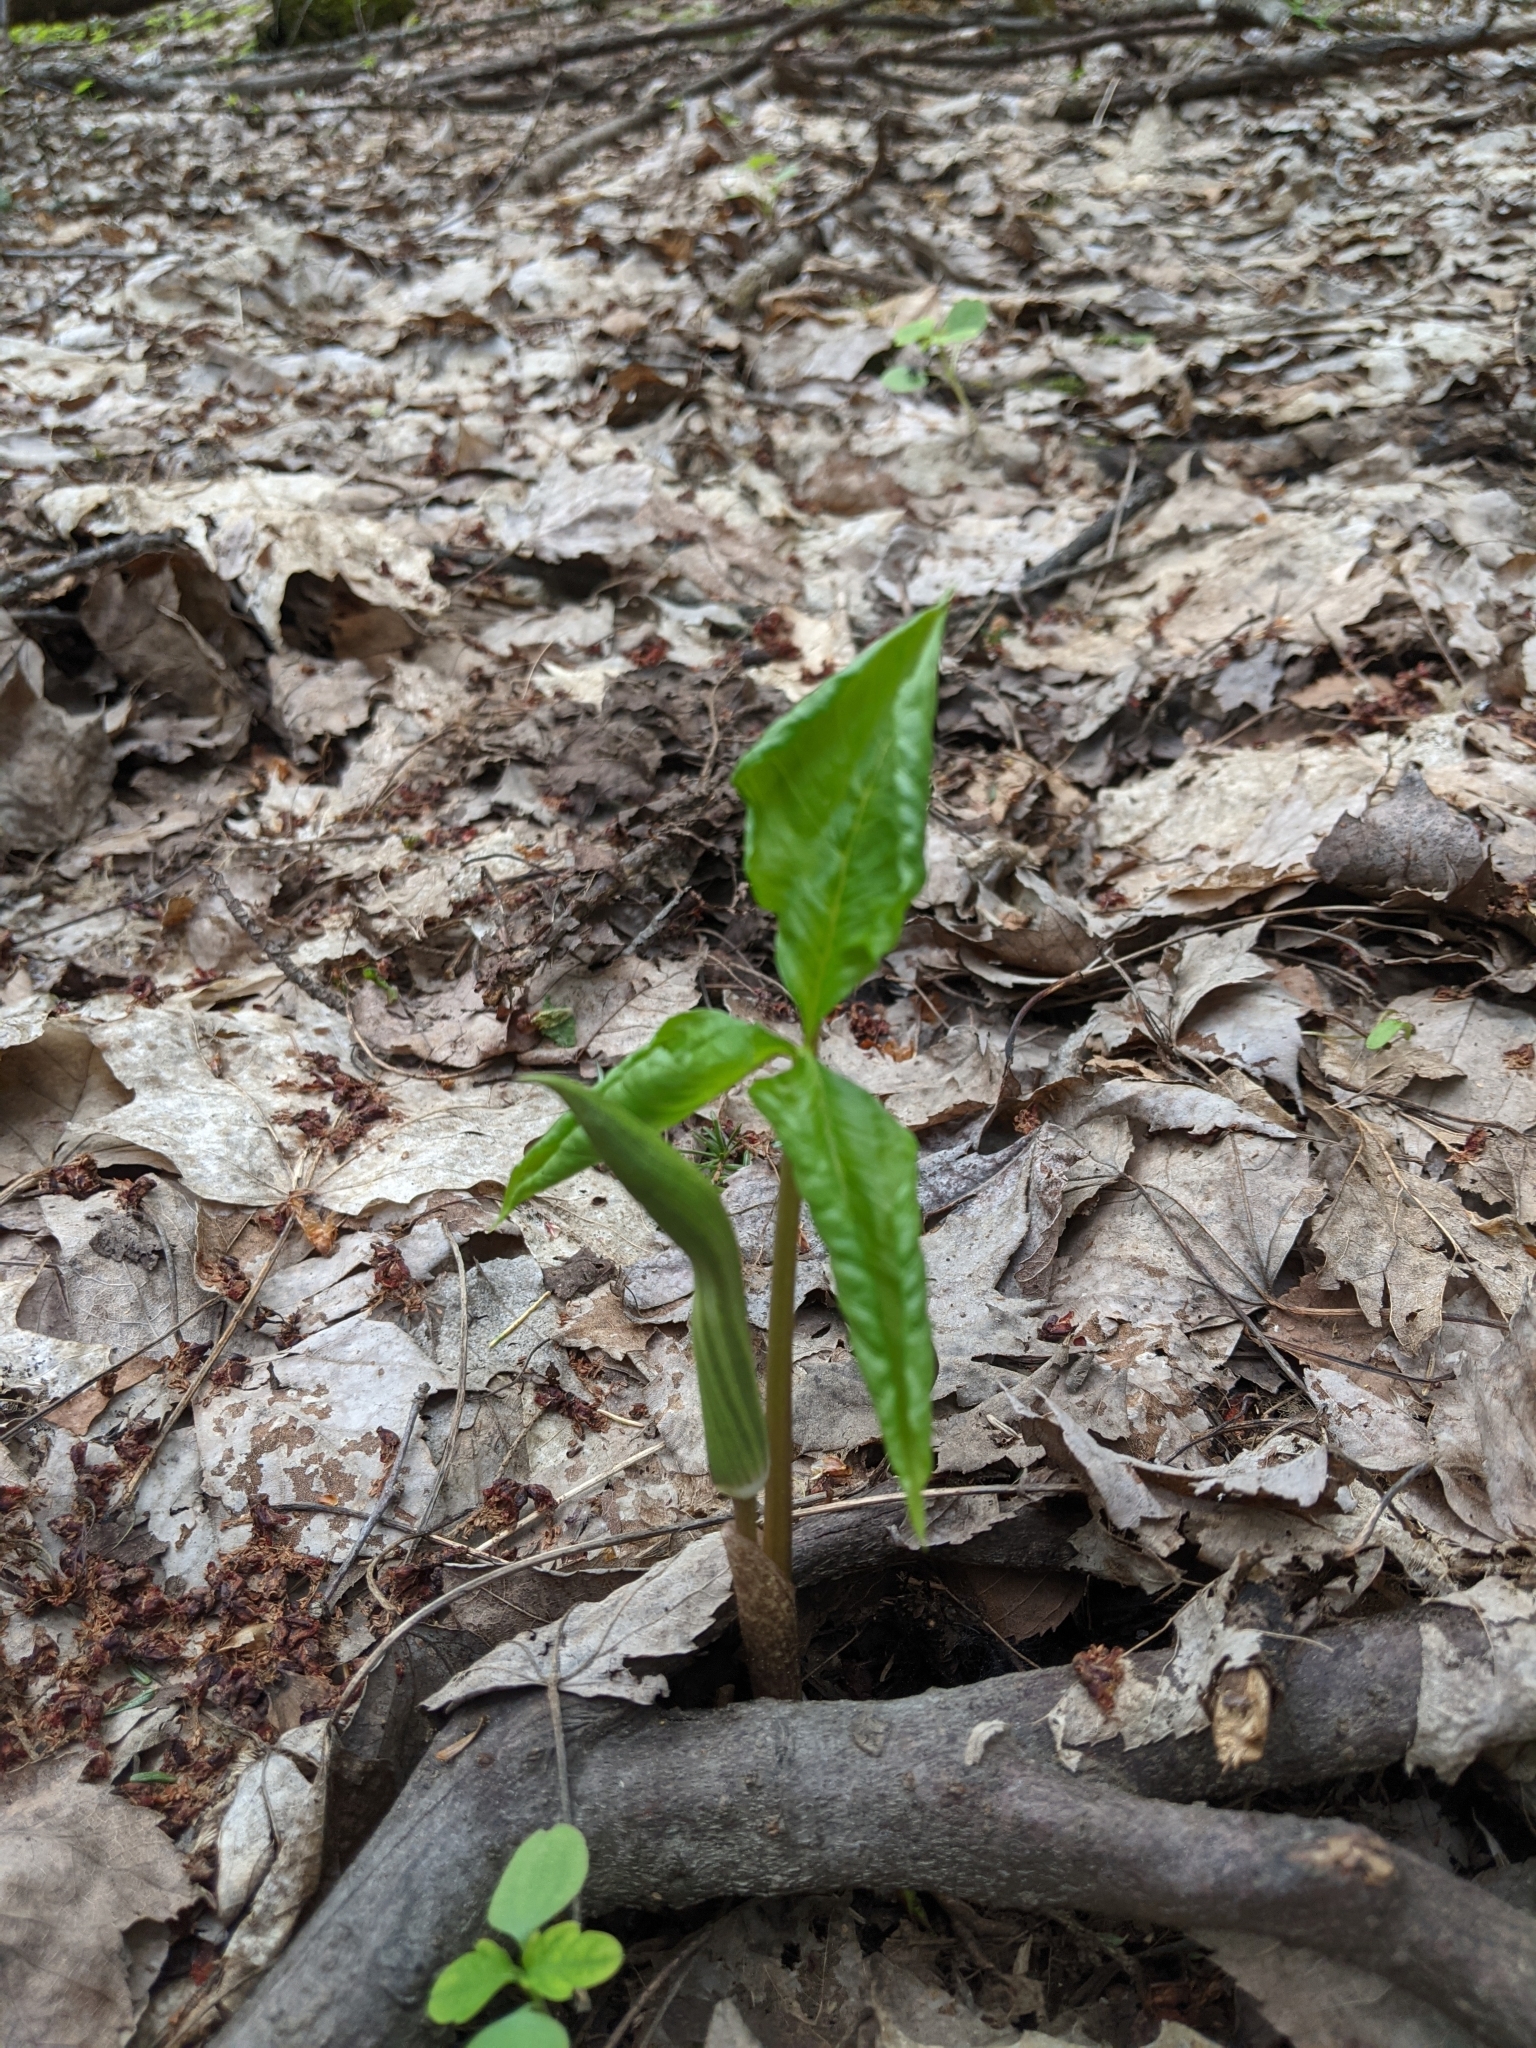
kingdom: Plantae
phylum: Tracheophyta
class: Liliopsida
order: Alismatales
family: Araceae
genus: Arisaema
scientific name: Arisaema triphyllum
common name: Jack-in-the-pulpit
